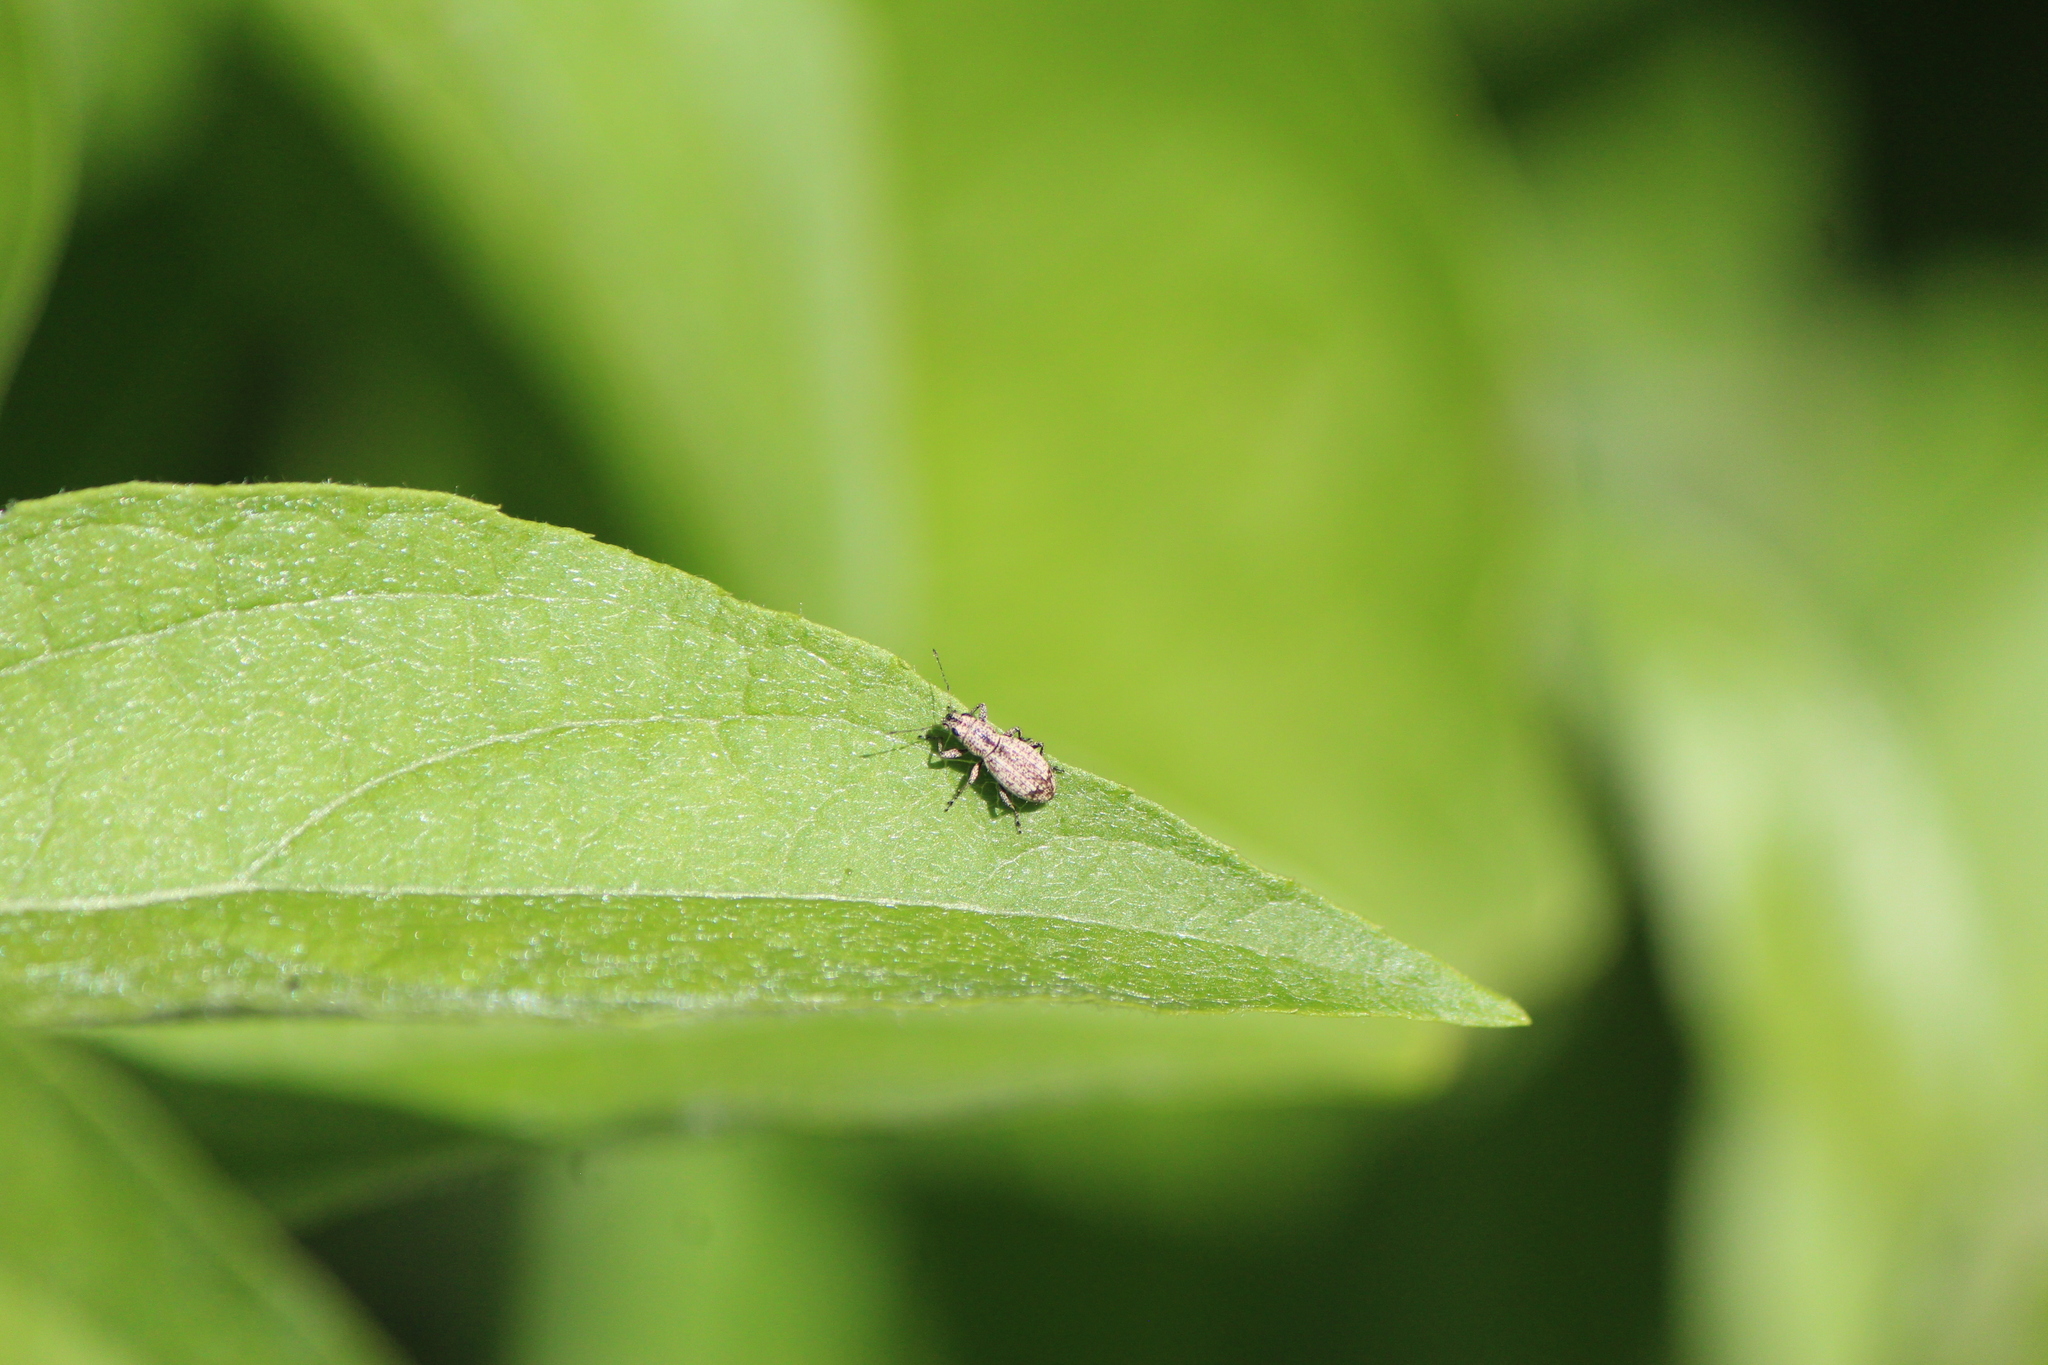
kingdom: Animalia
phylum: Arthropoda
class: Insecta
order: Coleoptera
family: Curculionidae
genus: Mitostylus
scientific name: Mitostylus setosus
